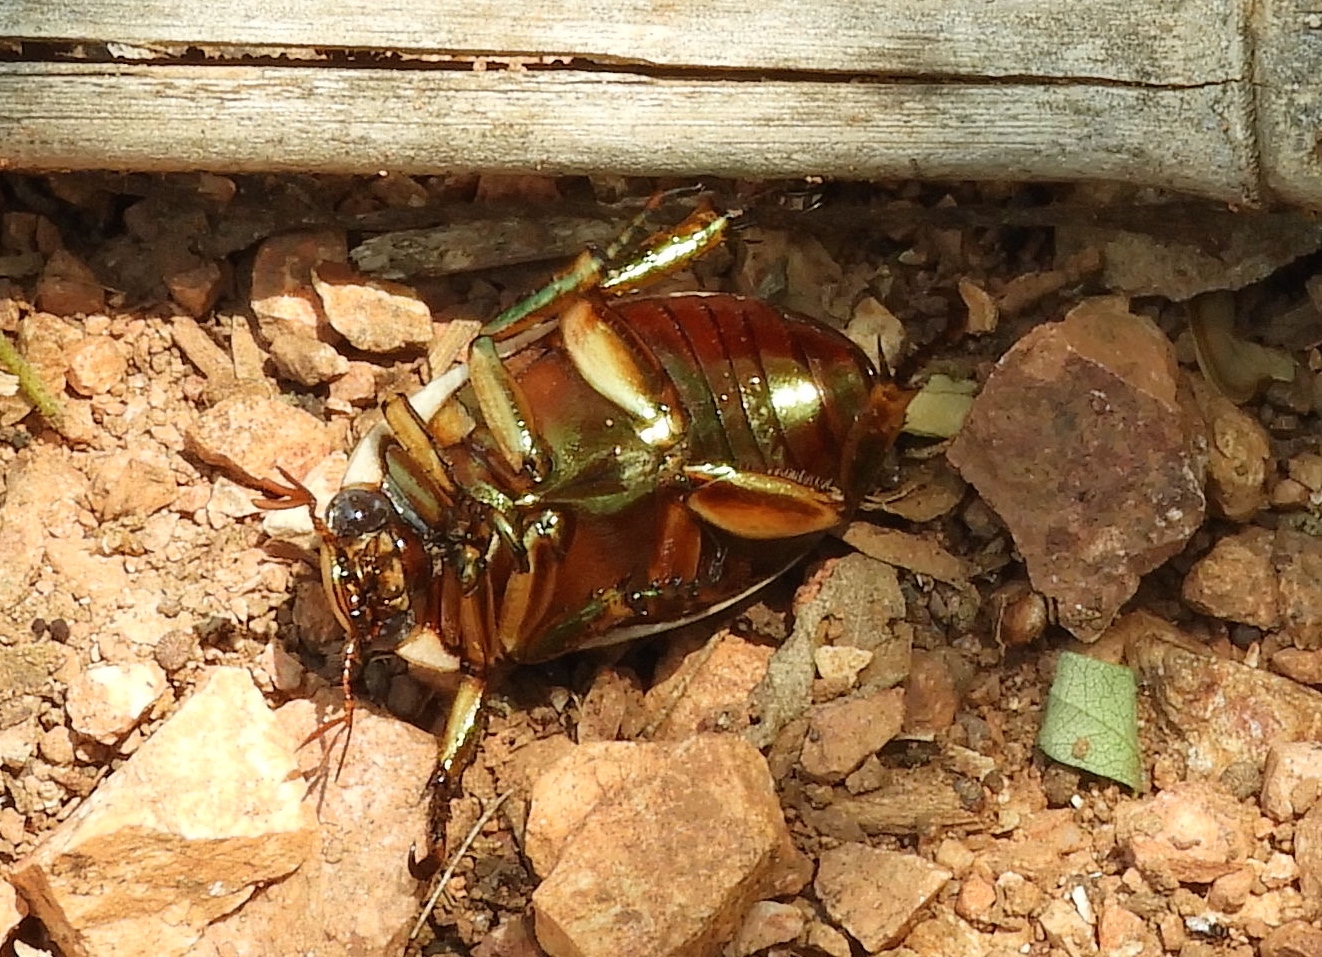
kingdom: Animalia
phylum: Arthropoda
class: Insecta
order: Coleoptera
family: Scarabaeidae
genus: Pelidnota
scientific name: Pelidnota virescens
